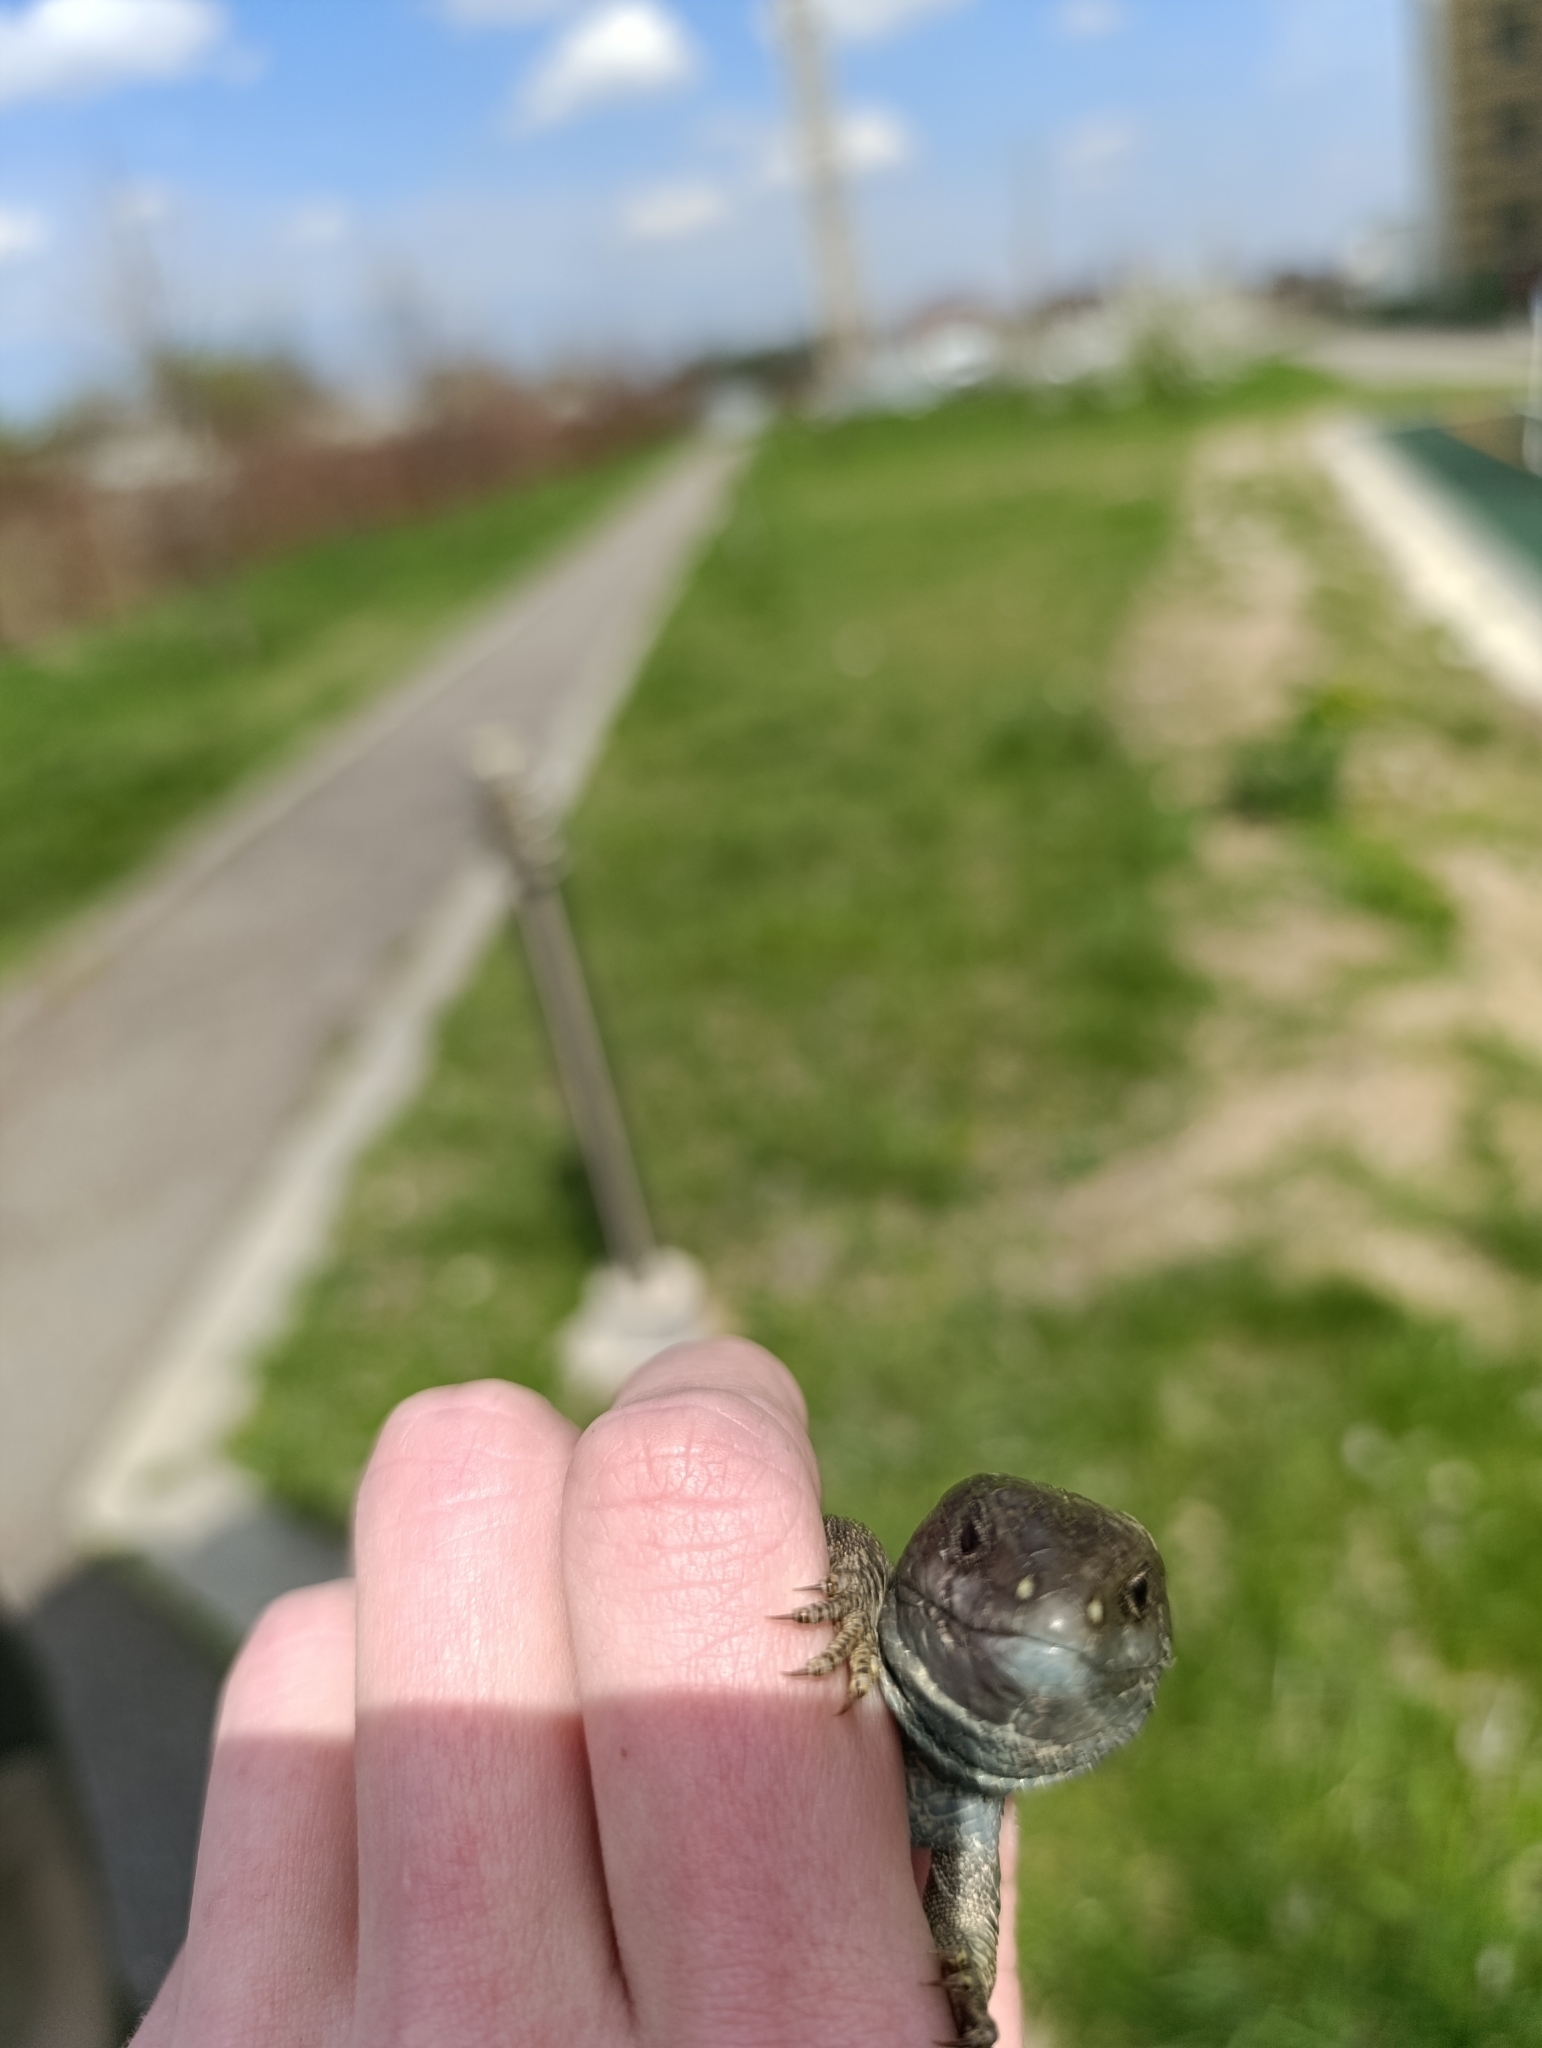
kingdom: Animalia
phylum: Chordata
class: Squamata
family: Lacertidae
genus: Lacerta
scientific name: Lacerta agilis
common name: Sand lizard
